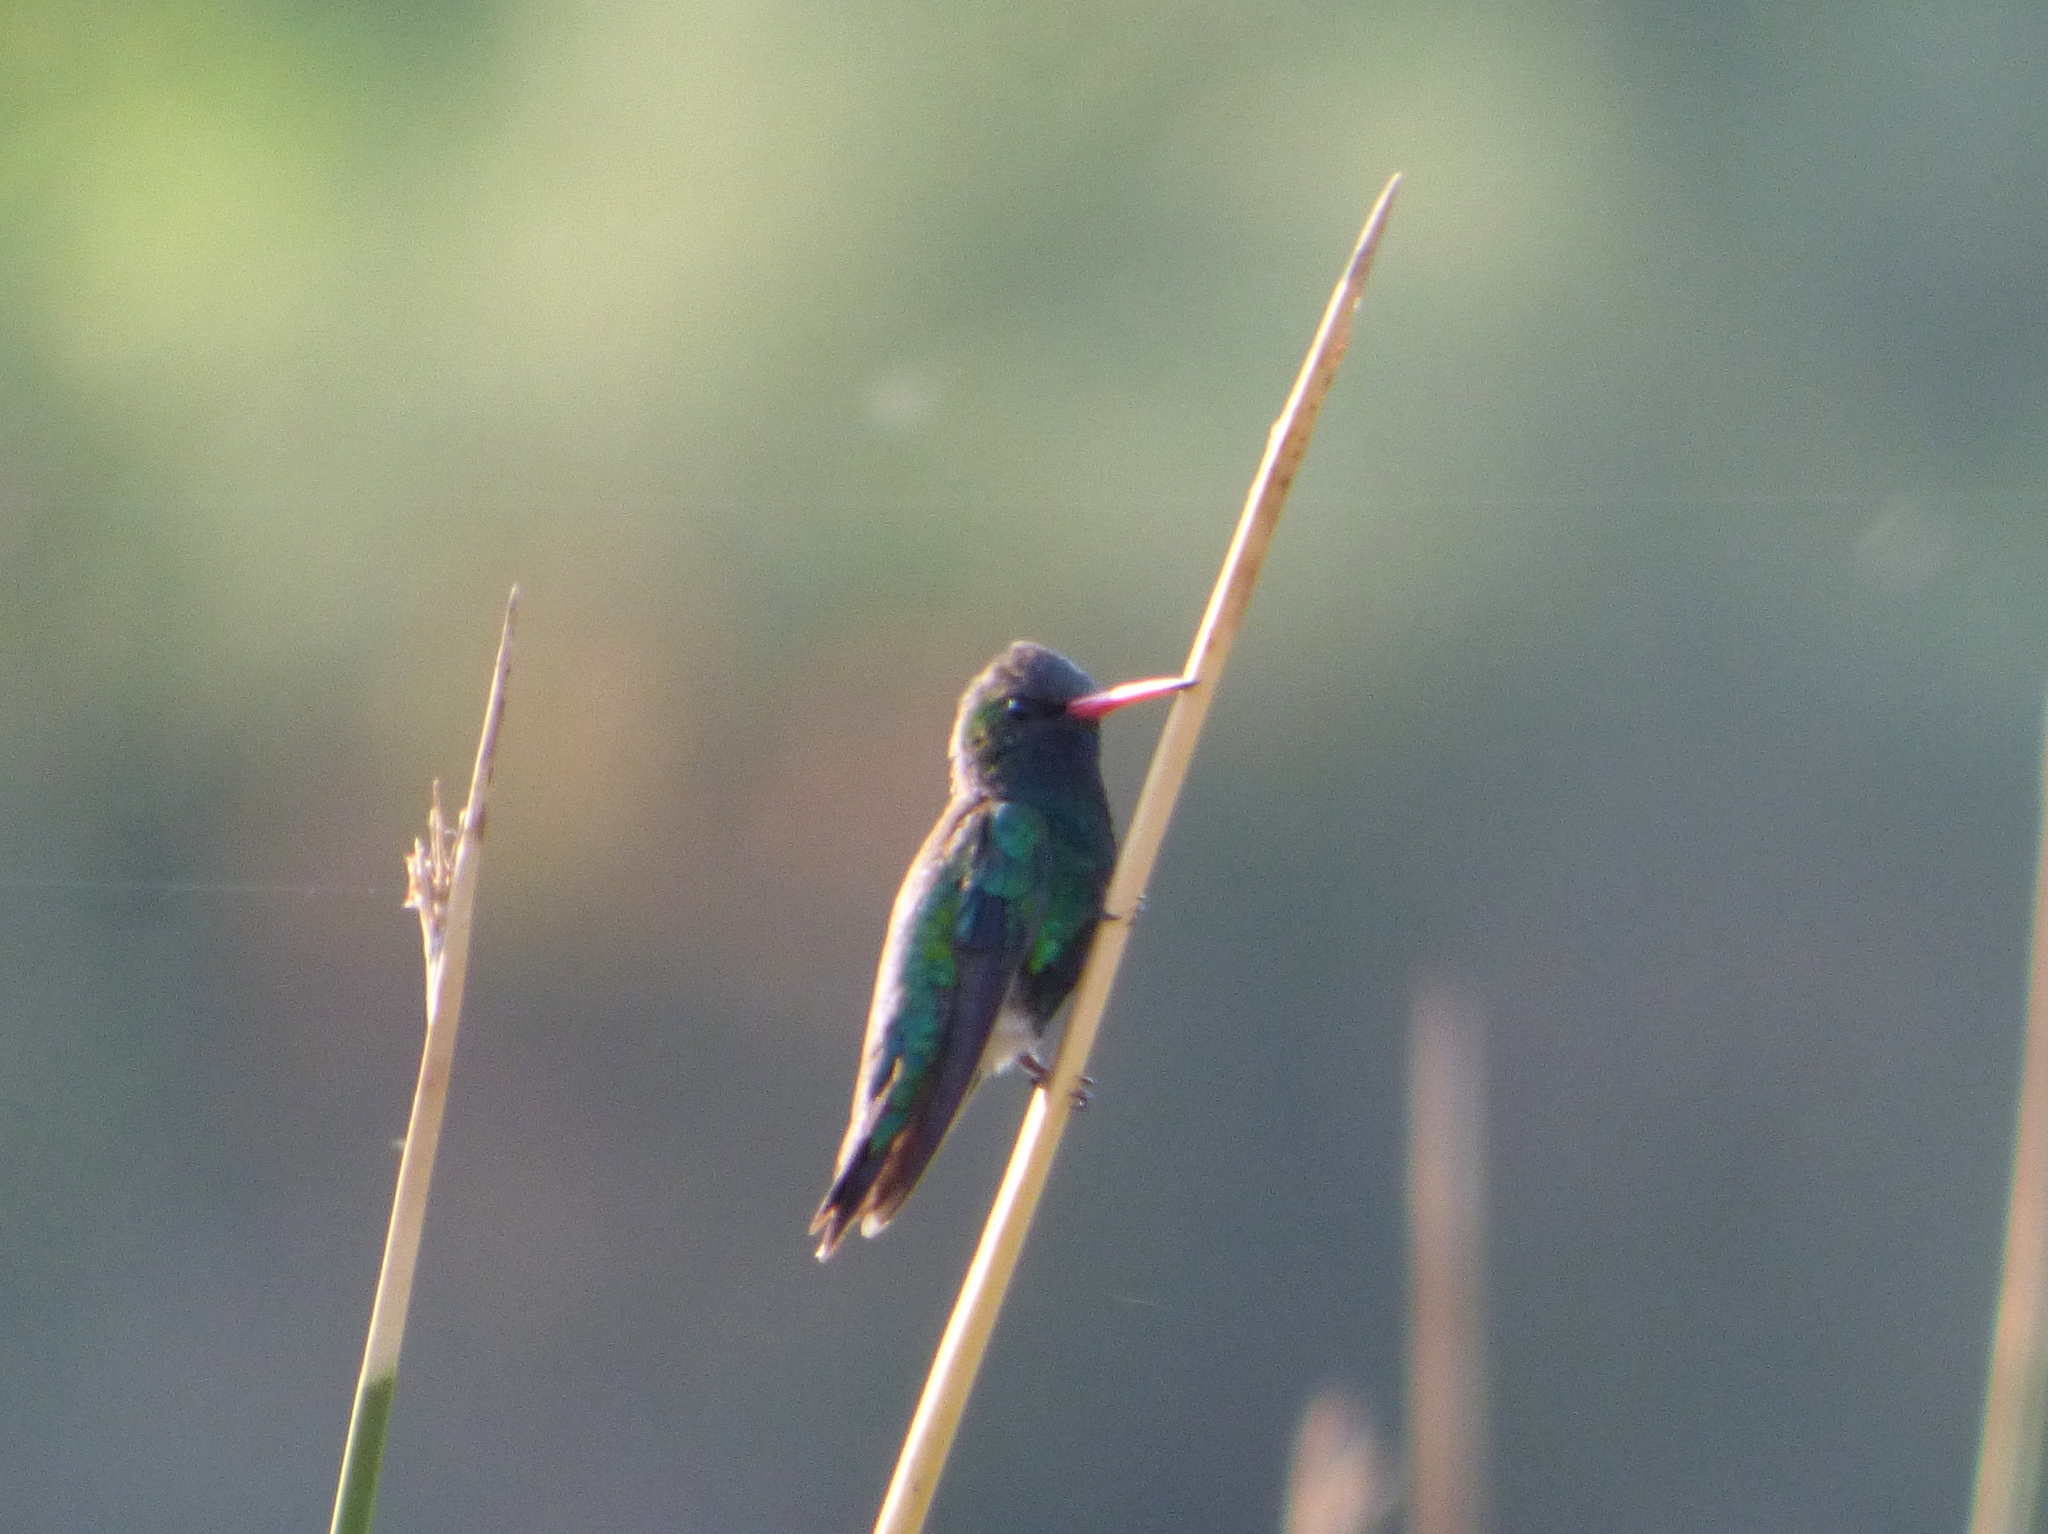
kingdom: Animalia
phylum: Chordata
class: Aves
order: Apodiformes
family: Trochilidae
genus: Chlorostilbon
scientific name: Chlorostilbon lucidus
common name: Glittering-bellied emerald
